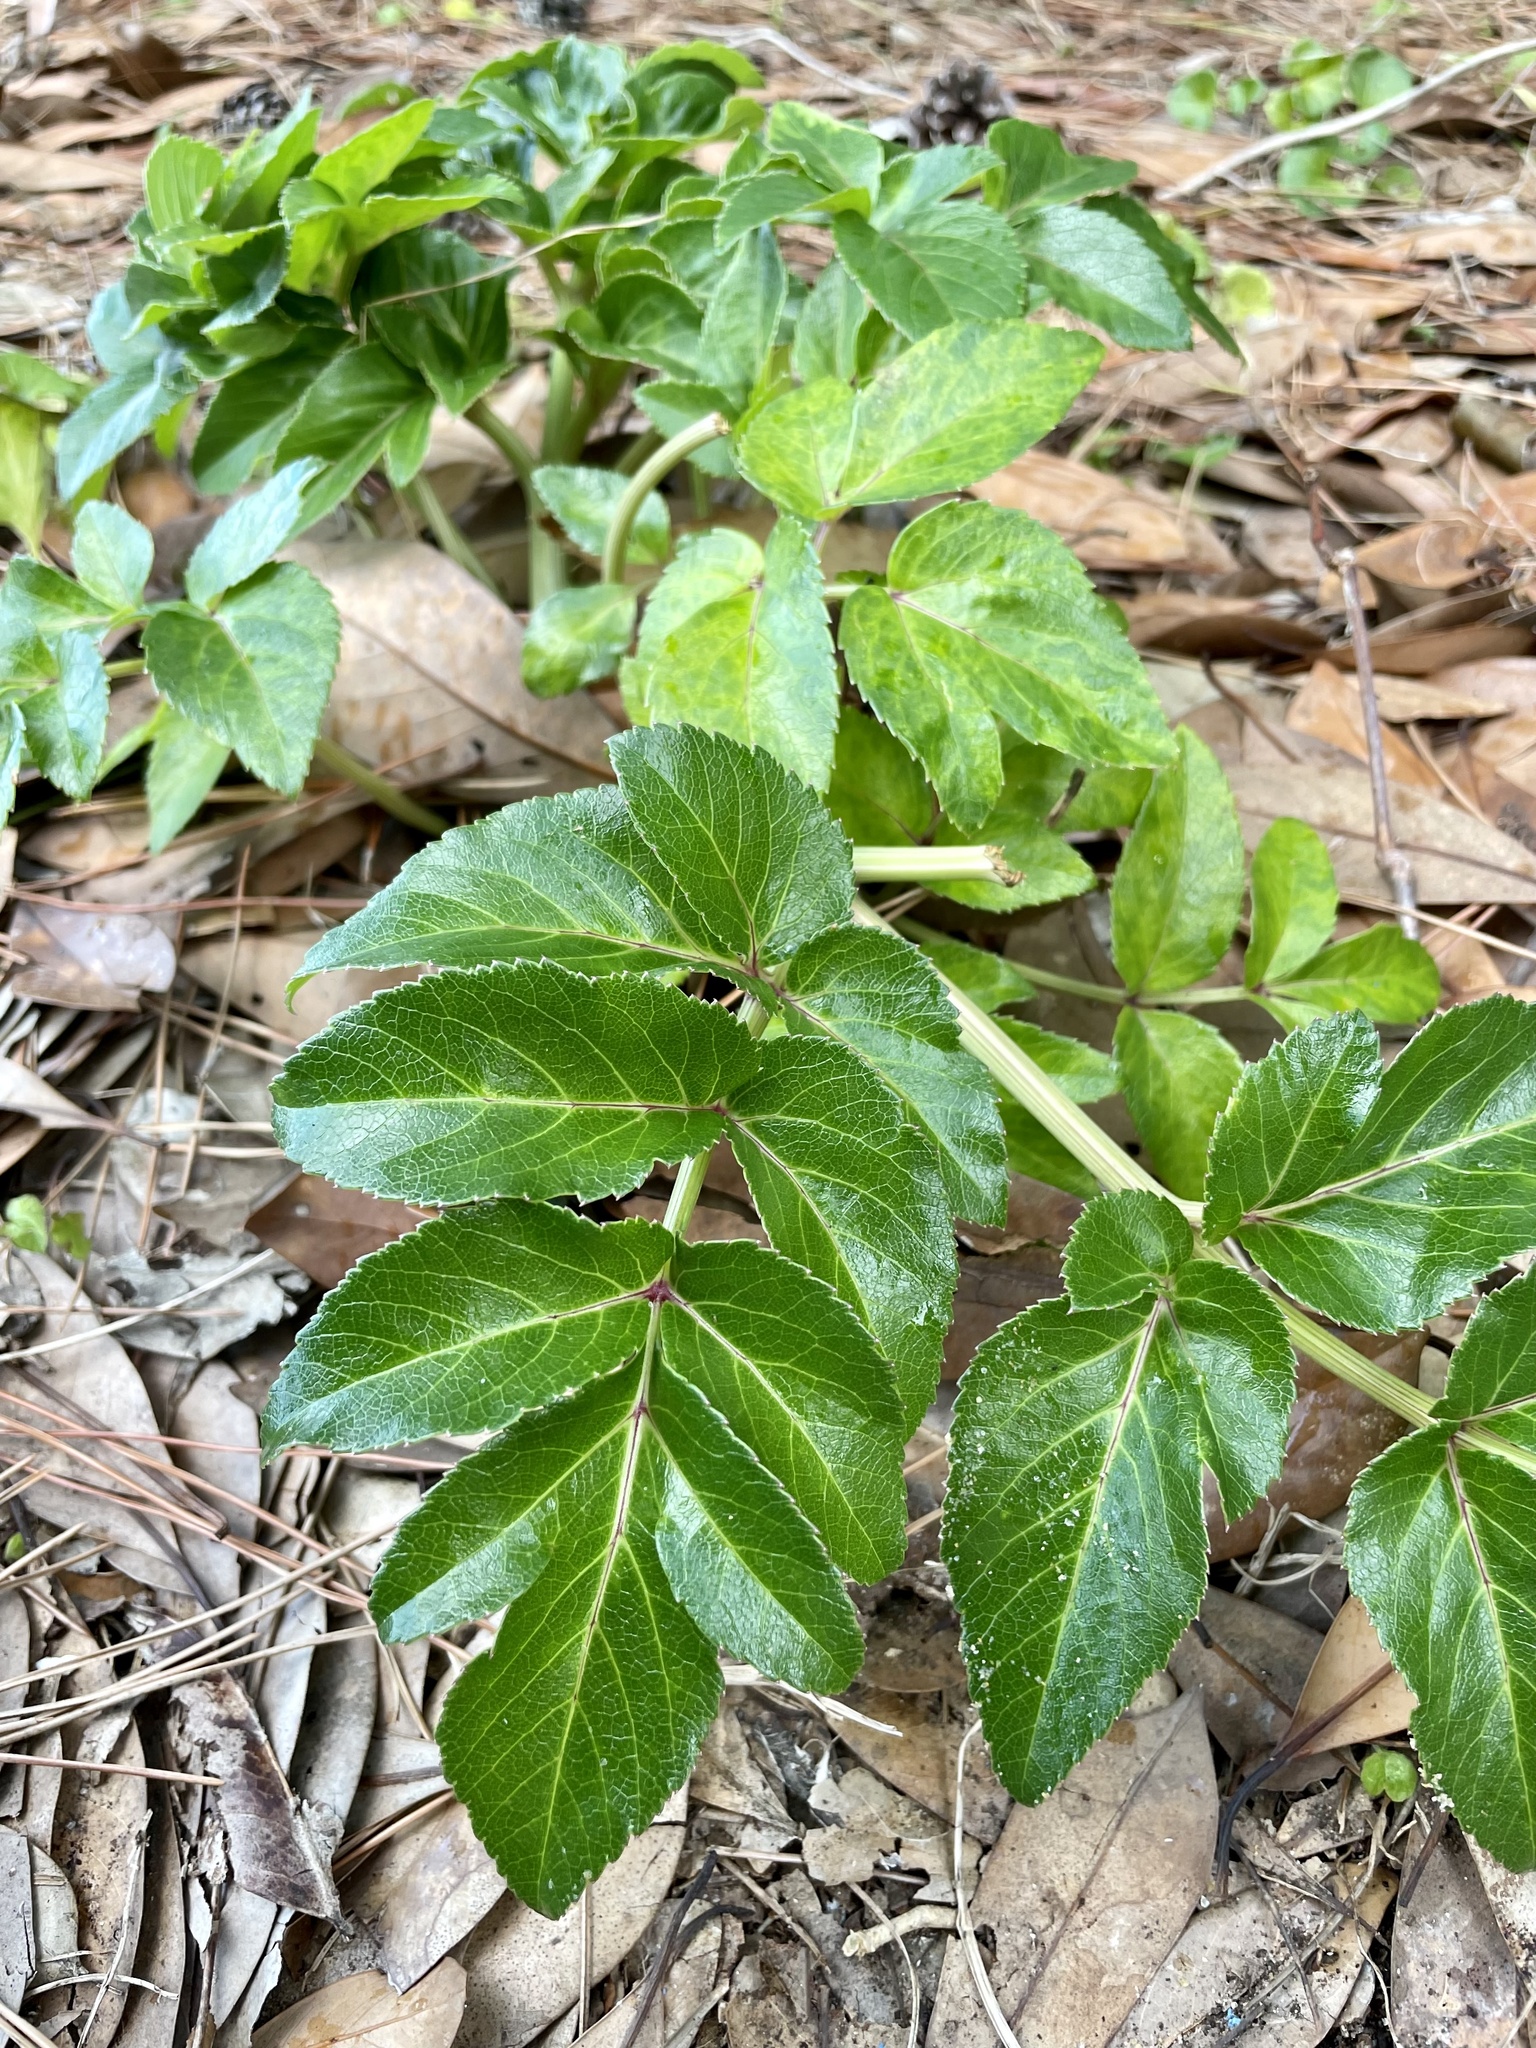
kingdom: Plantae
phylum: Tracheophyta
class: Magnoliopsida
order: Apiales
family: Apiaceae
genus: Angelica
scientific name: Angelica japonica
